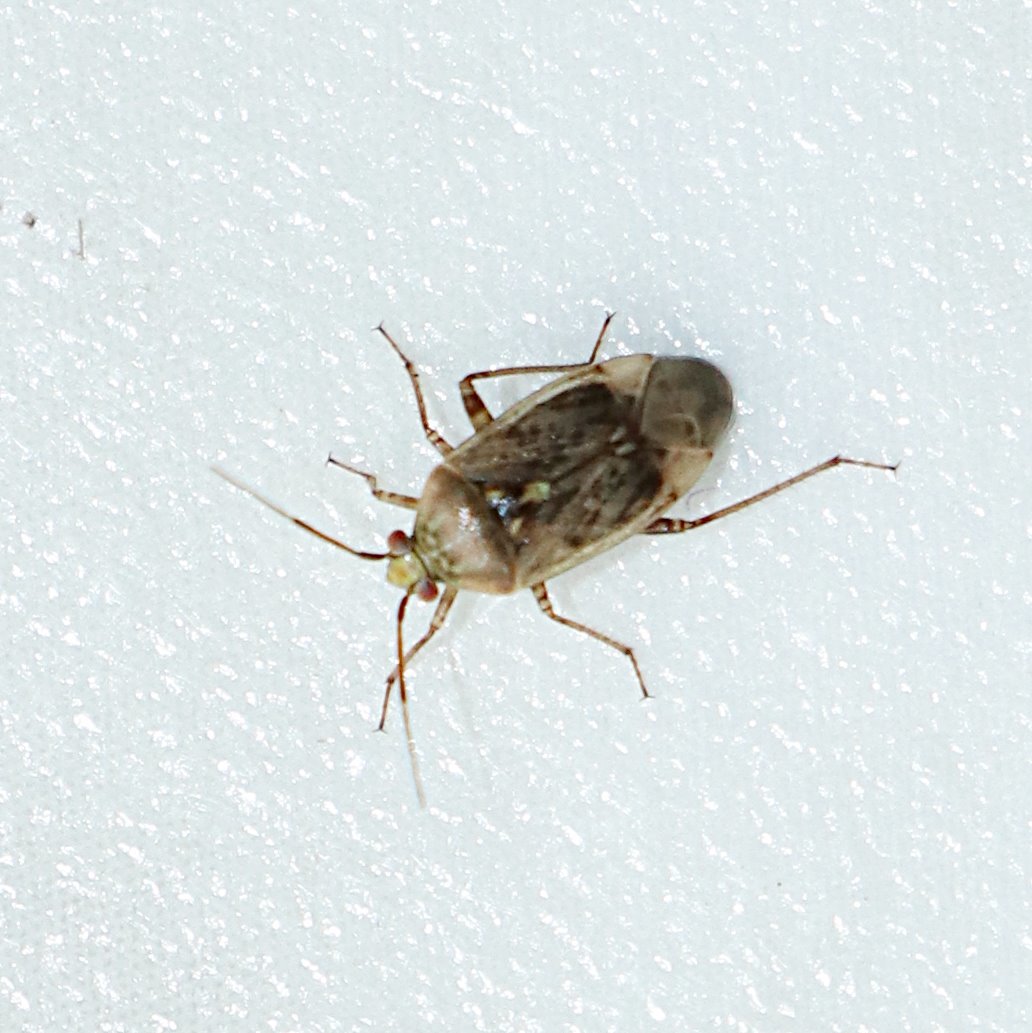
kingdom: Animalia
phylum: Arthropoda
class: Insecta
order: Hemiptera
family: Miridae
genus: Lygus
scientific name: Lygus rugulipennis
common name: European tarnished plant bug
